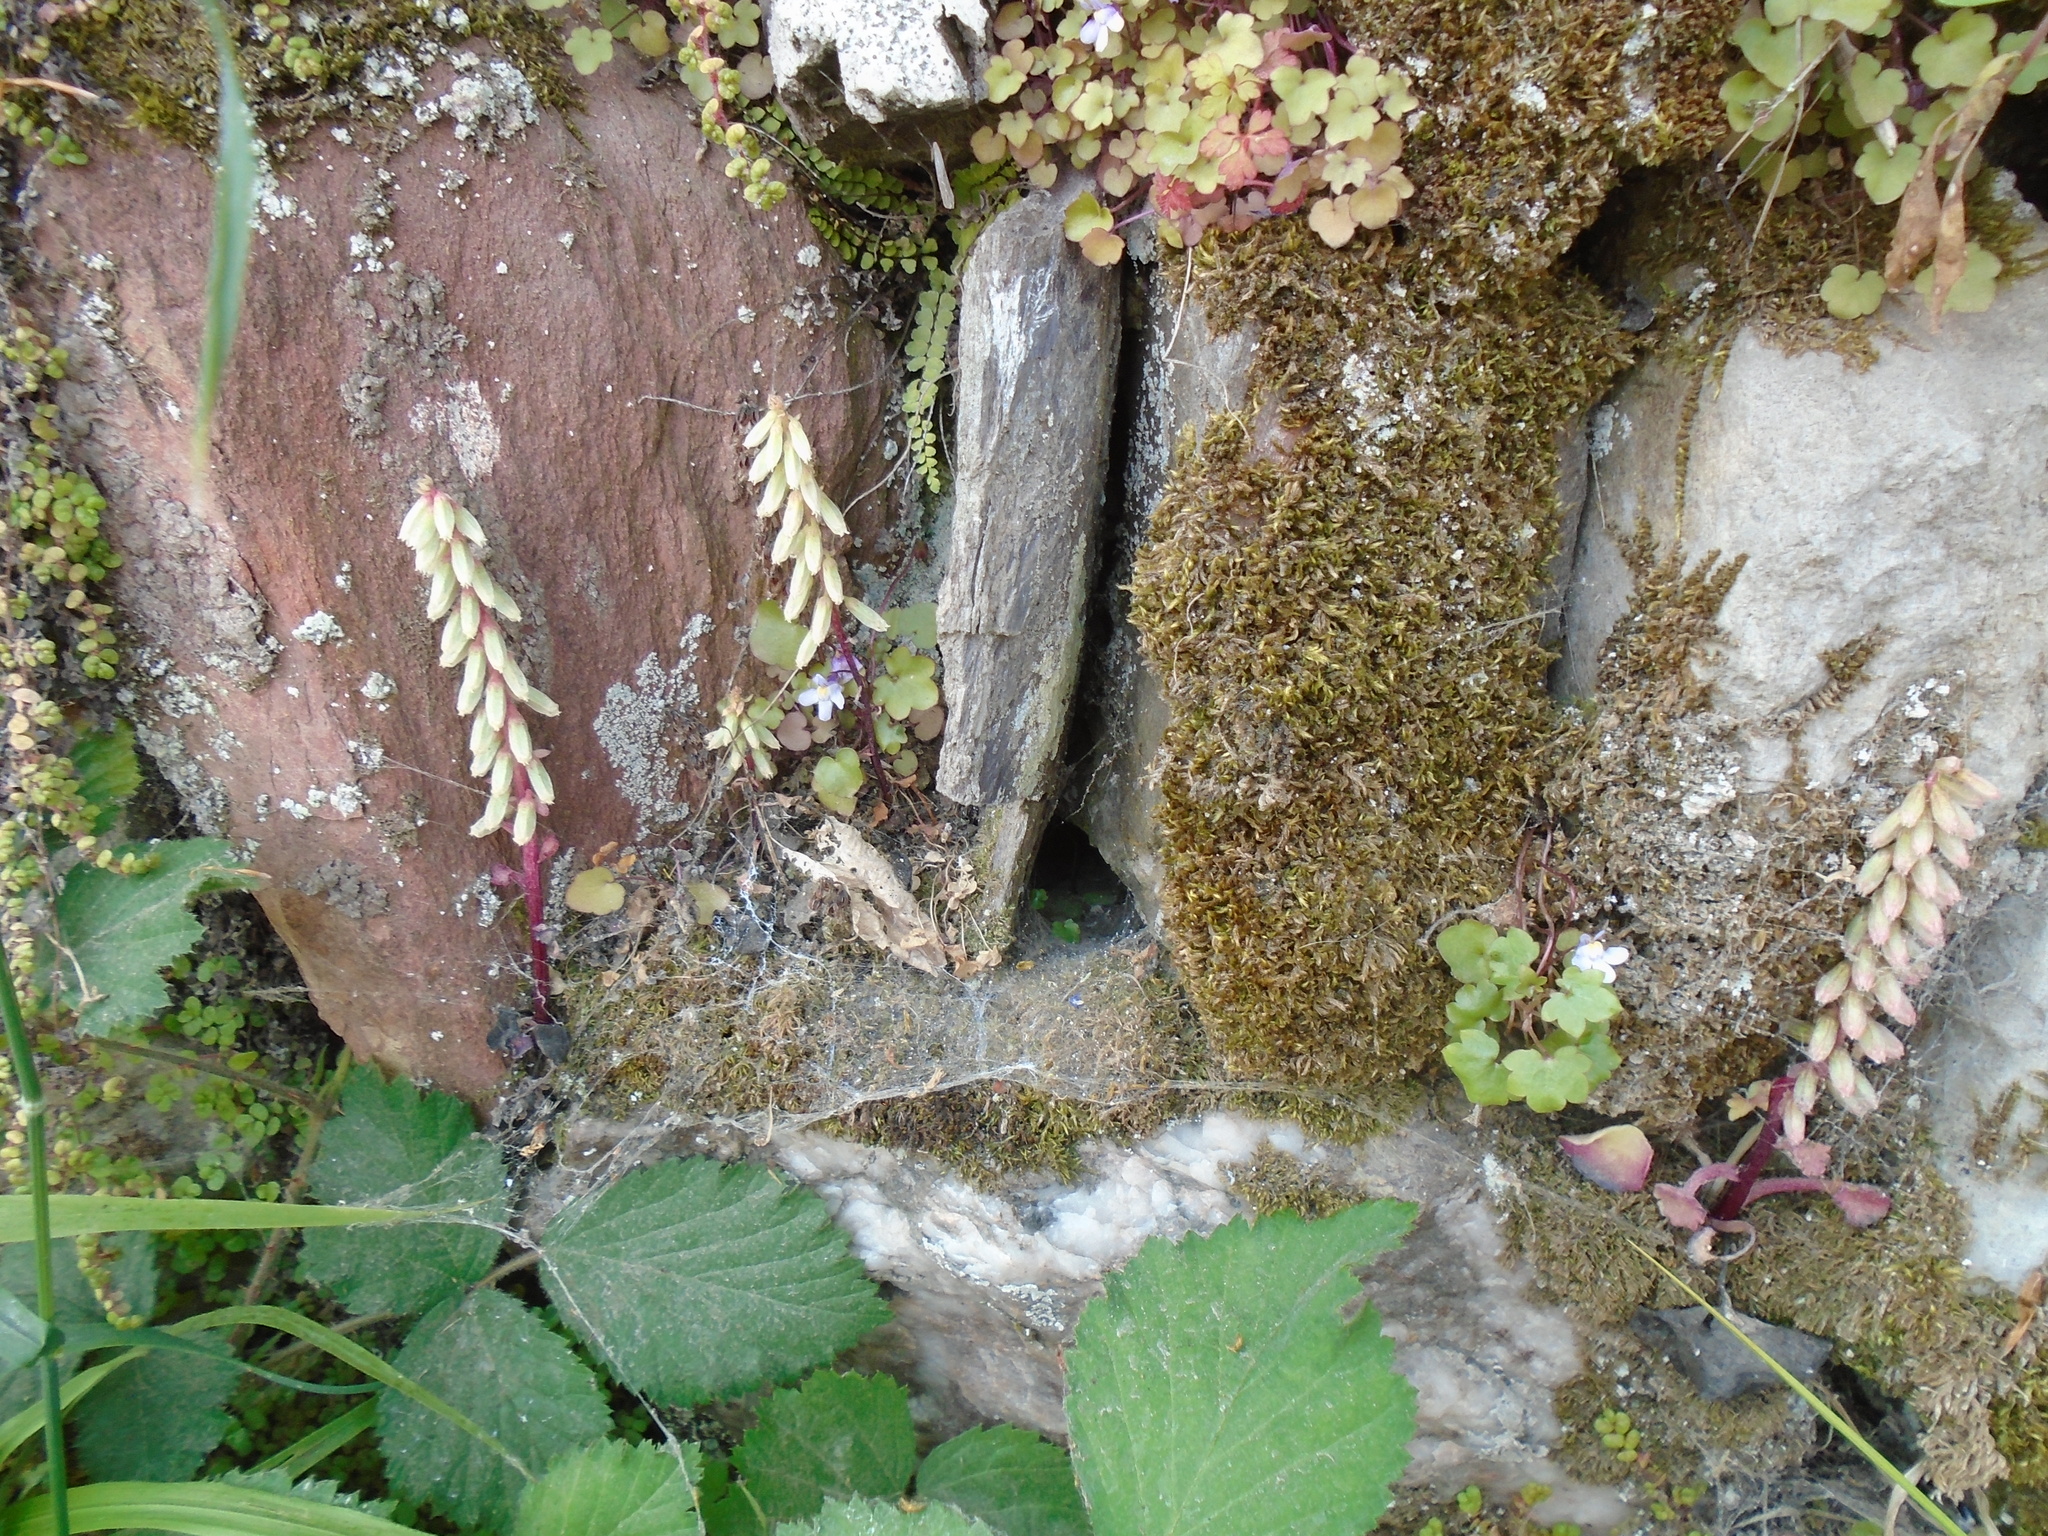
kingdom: Plantae
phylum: Tracheophyta
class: Magnoliopsida
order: Saxifragales
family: Crassulaceae
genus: Umbilicus
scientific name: Umbilicus rupestris
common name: Navelwort
